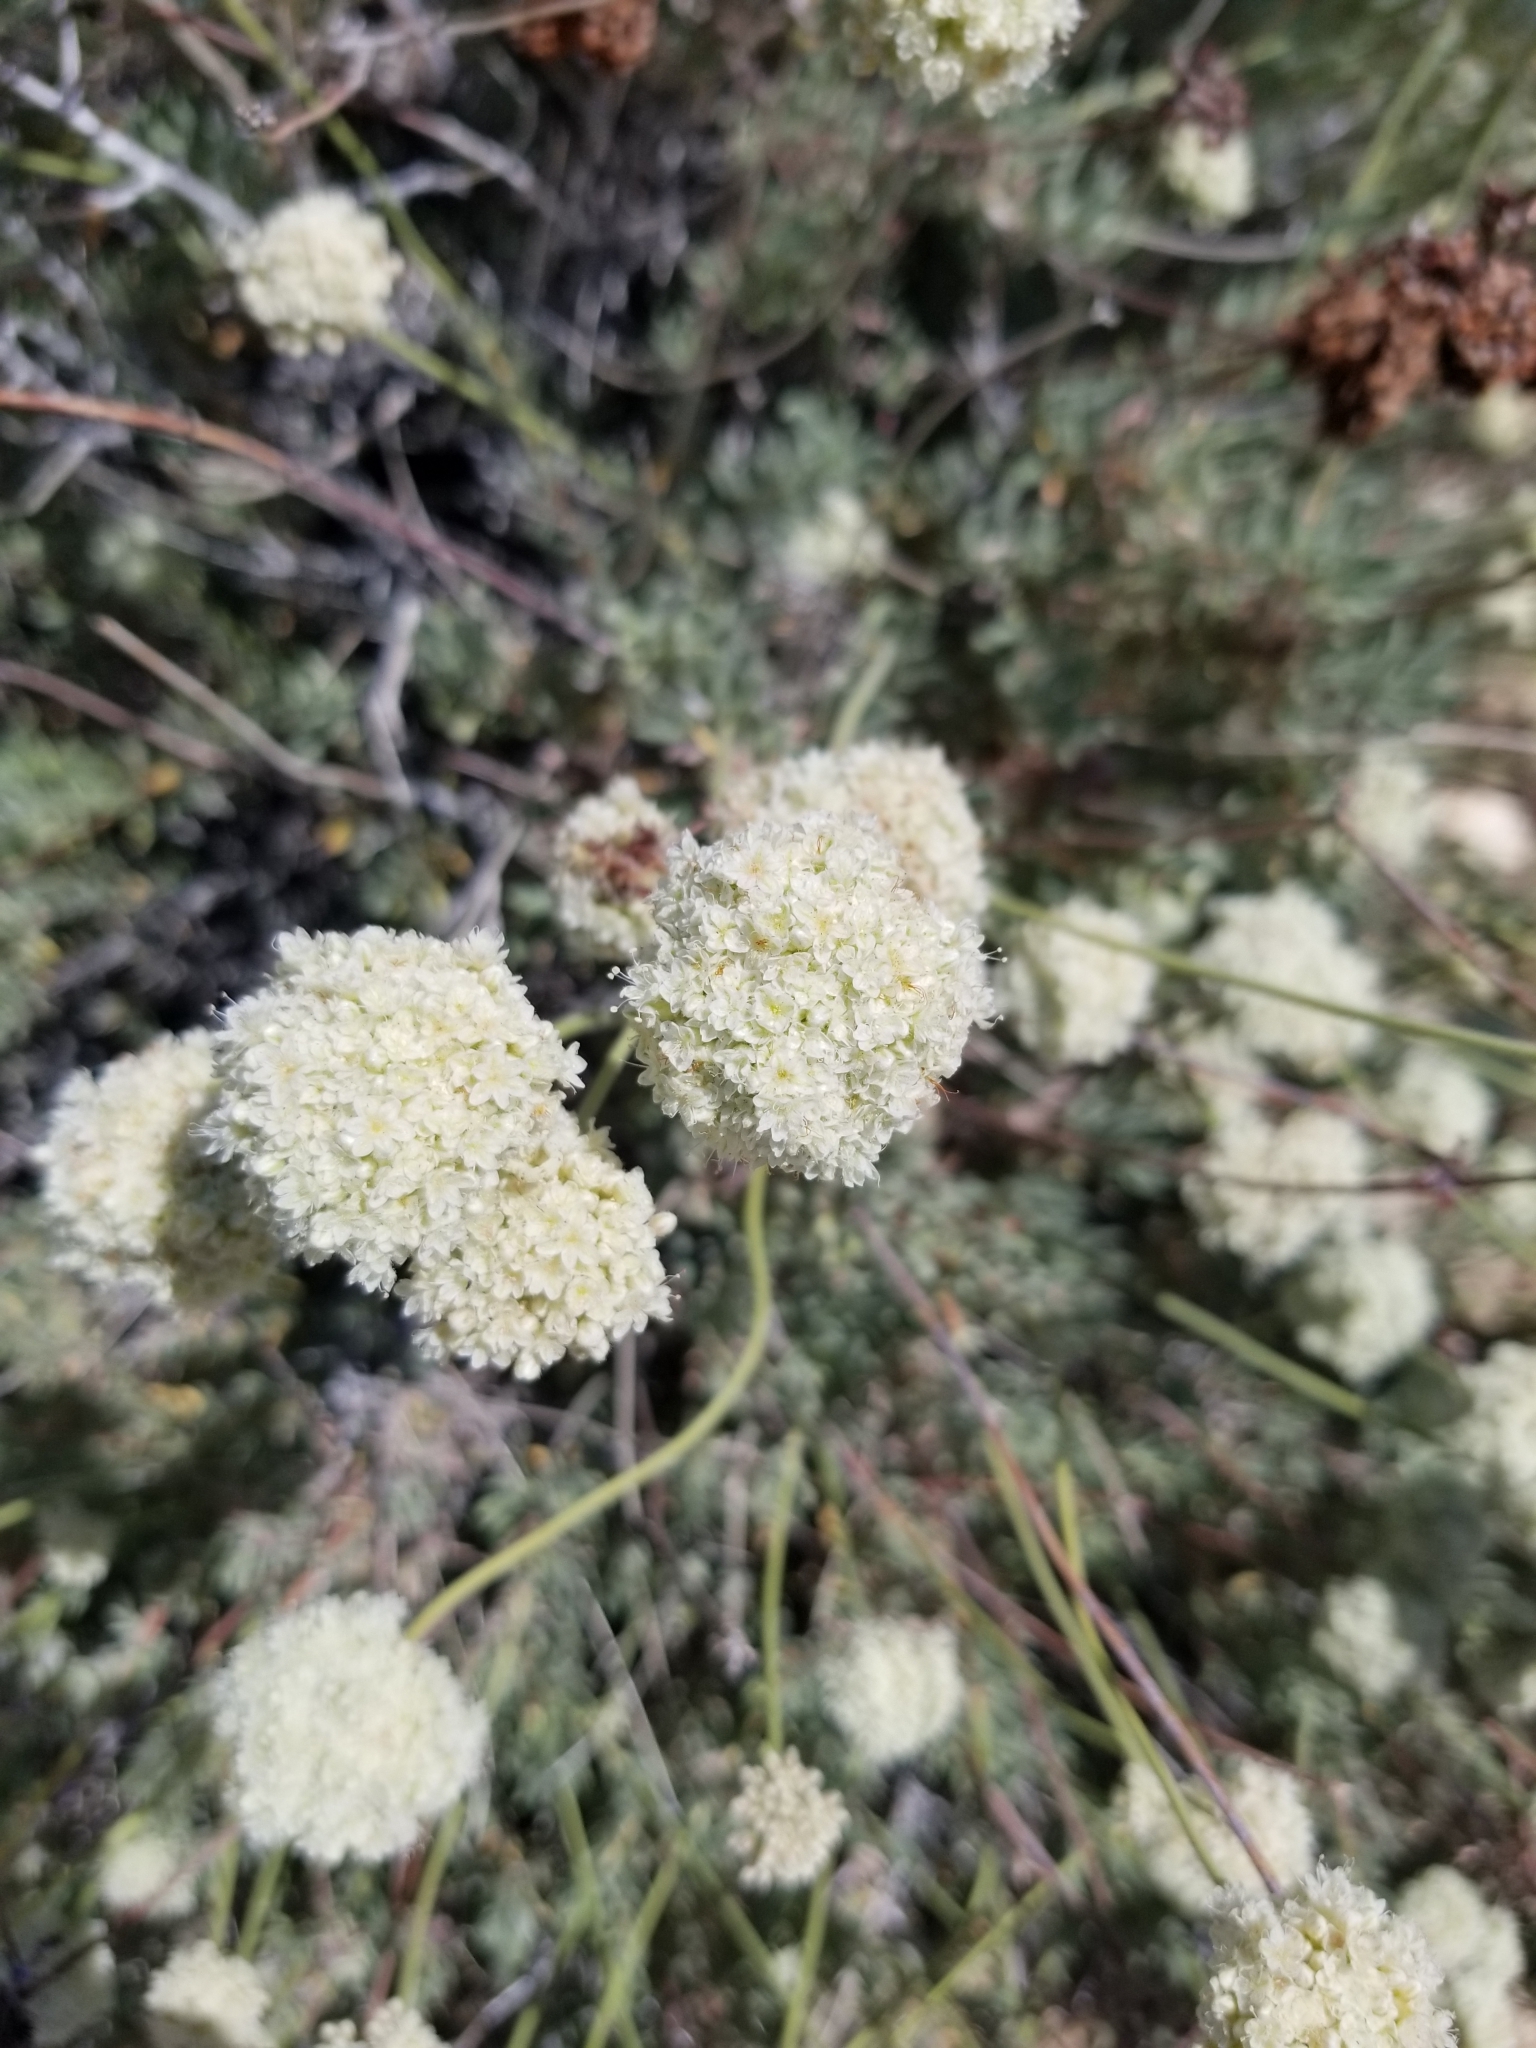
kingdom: Plantae
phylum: Tracheophyta
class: Magnoliopsida
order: Caryophyllales
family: Polygonaceae
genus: Eriogonum
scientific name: Eriogonum fasciculatum
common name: California wild buckwheat
